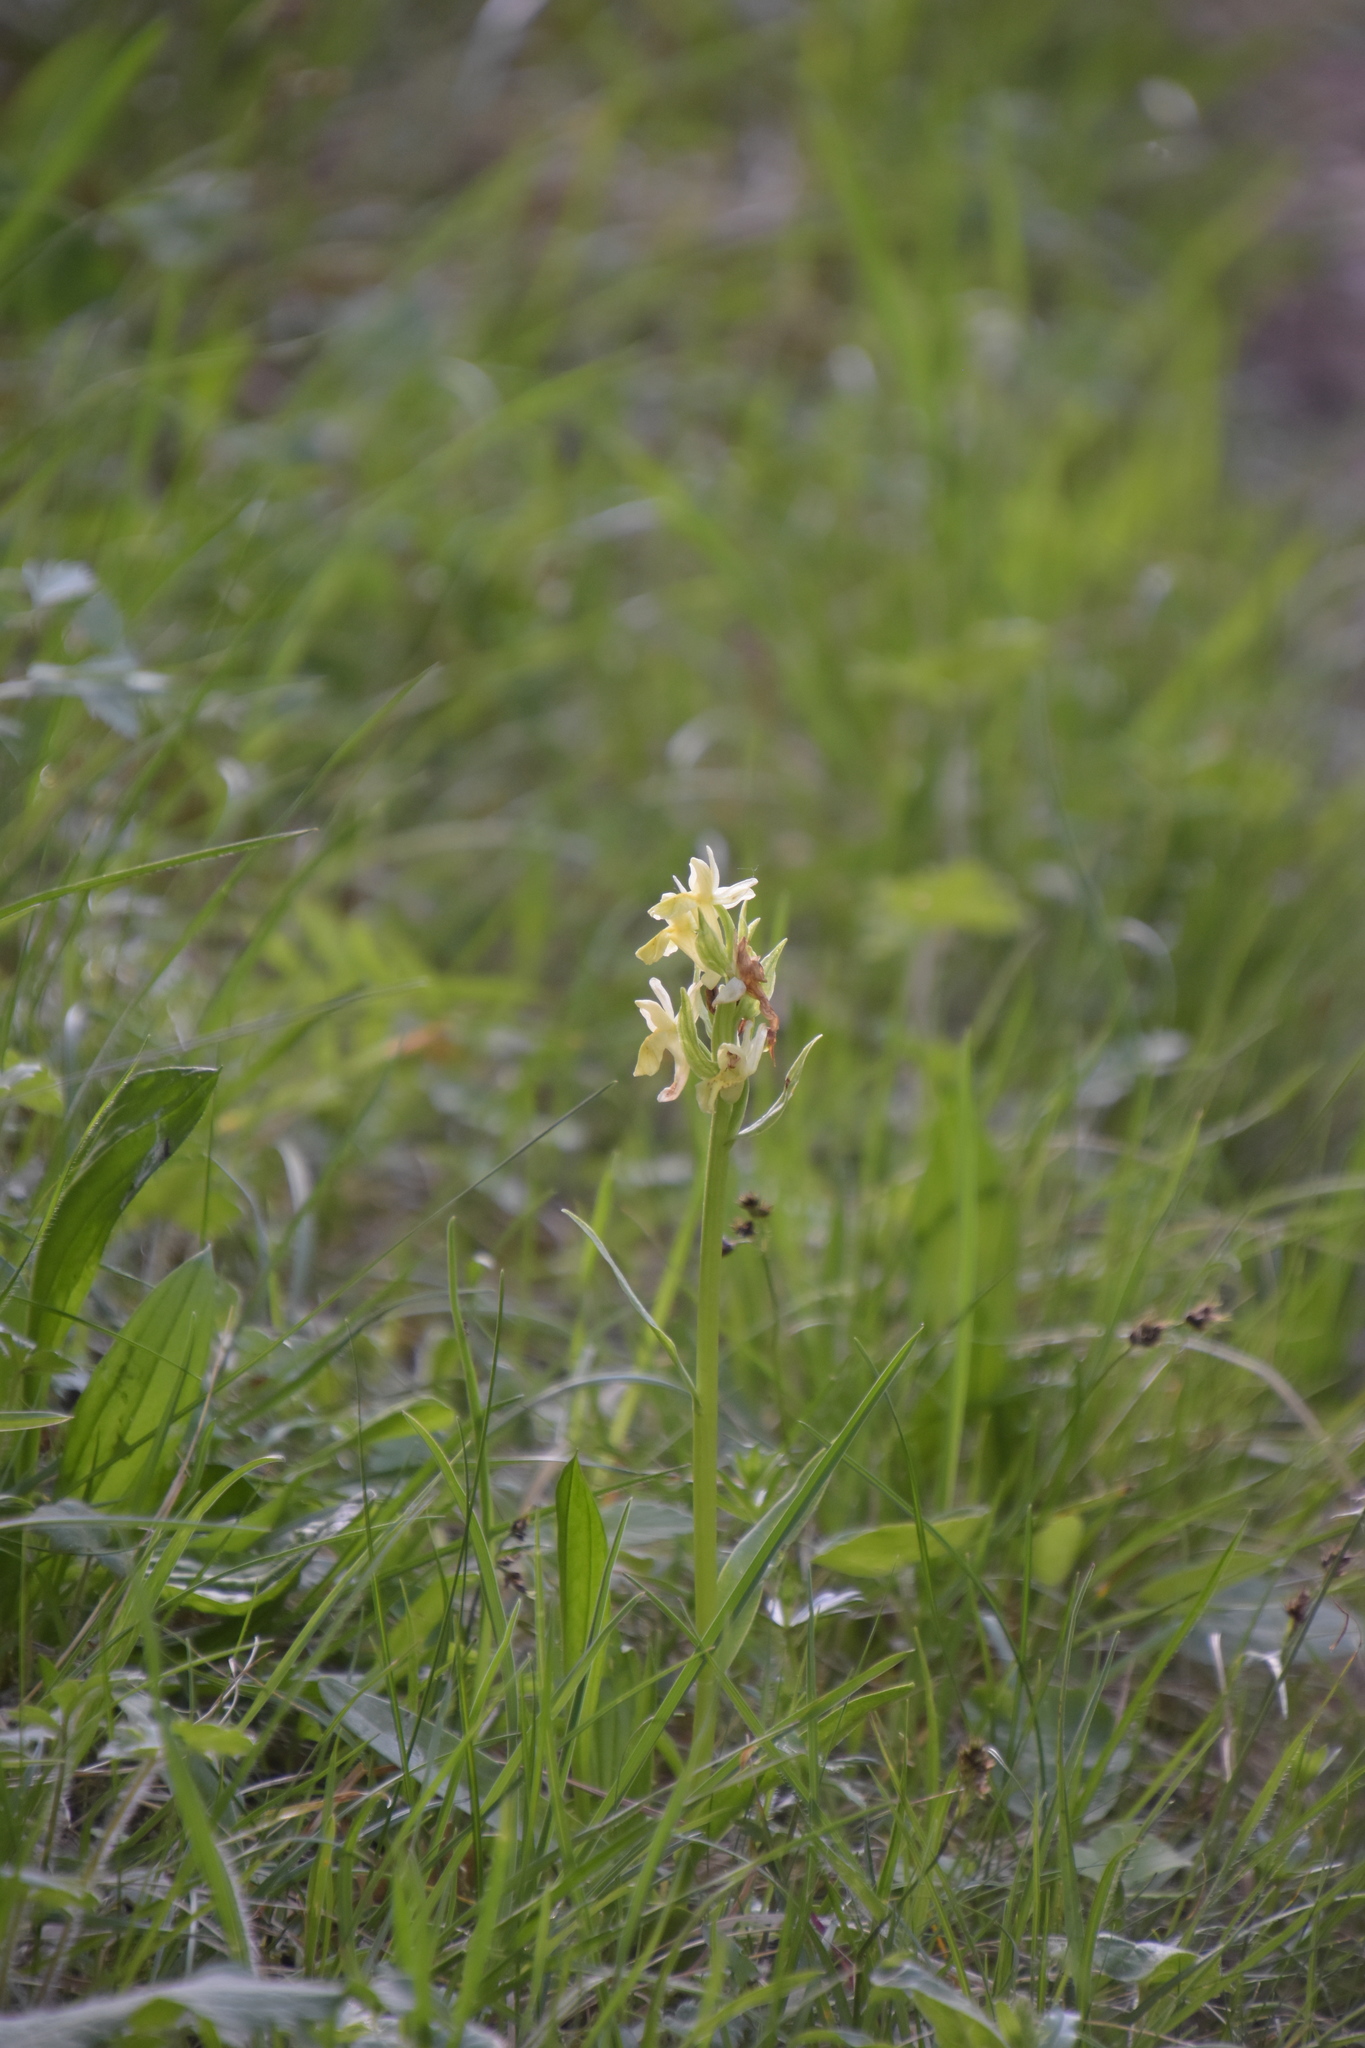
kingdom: Plantae
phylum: Tracheophyta
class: Liliopsida
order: Asparagales
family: Orchidaceae
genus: Dactylorhiza
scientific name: Dactylorhiza sambucina
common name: Elder-flowered orchid
